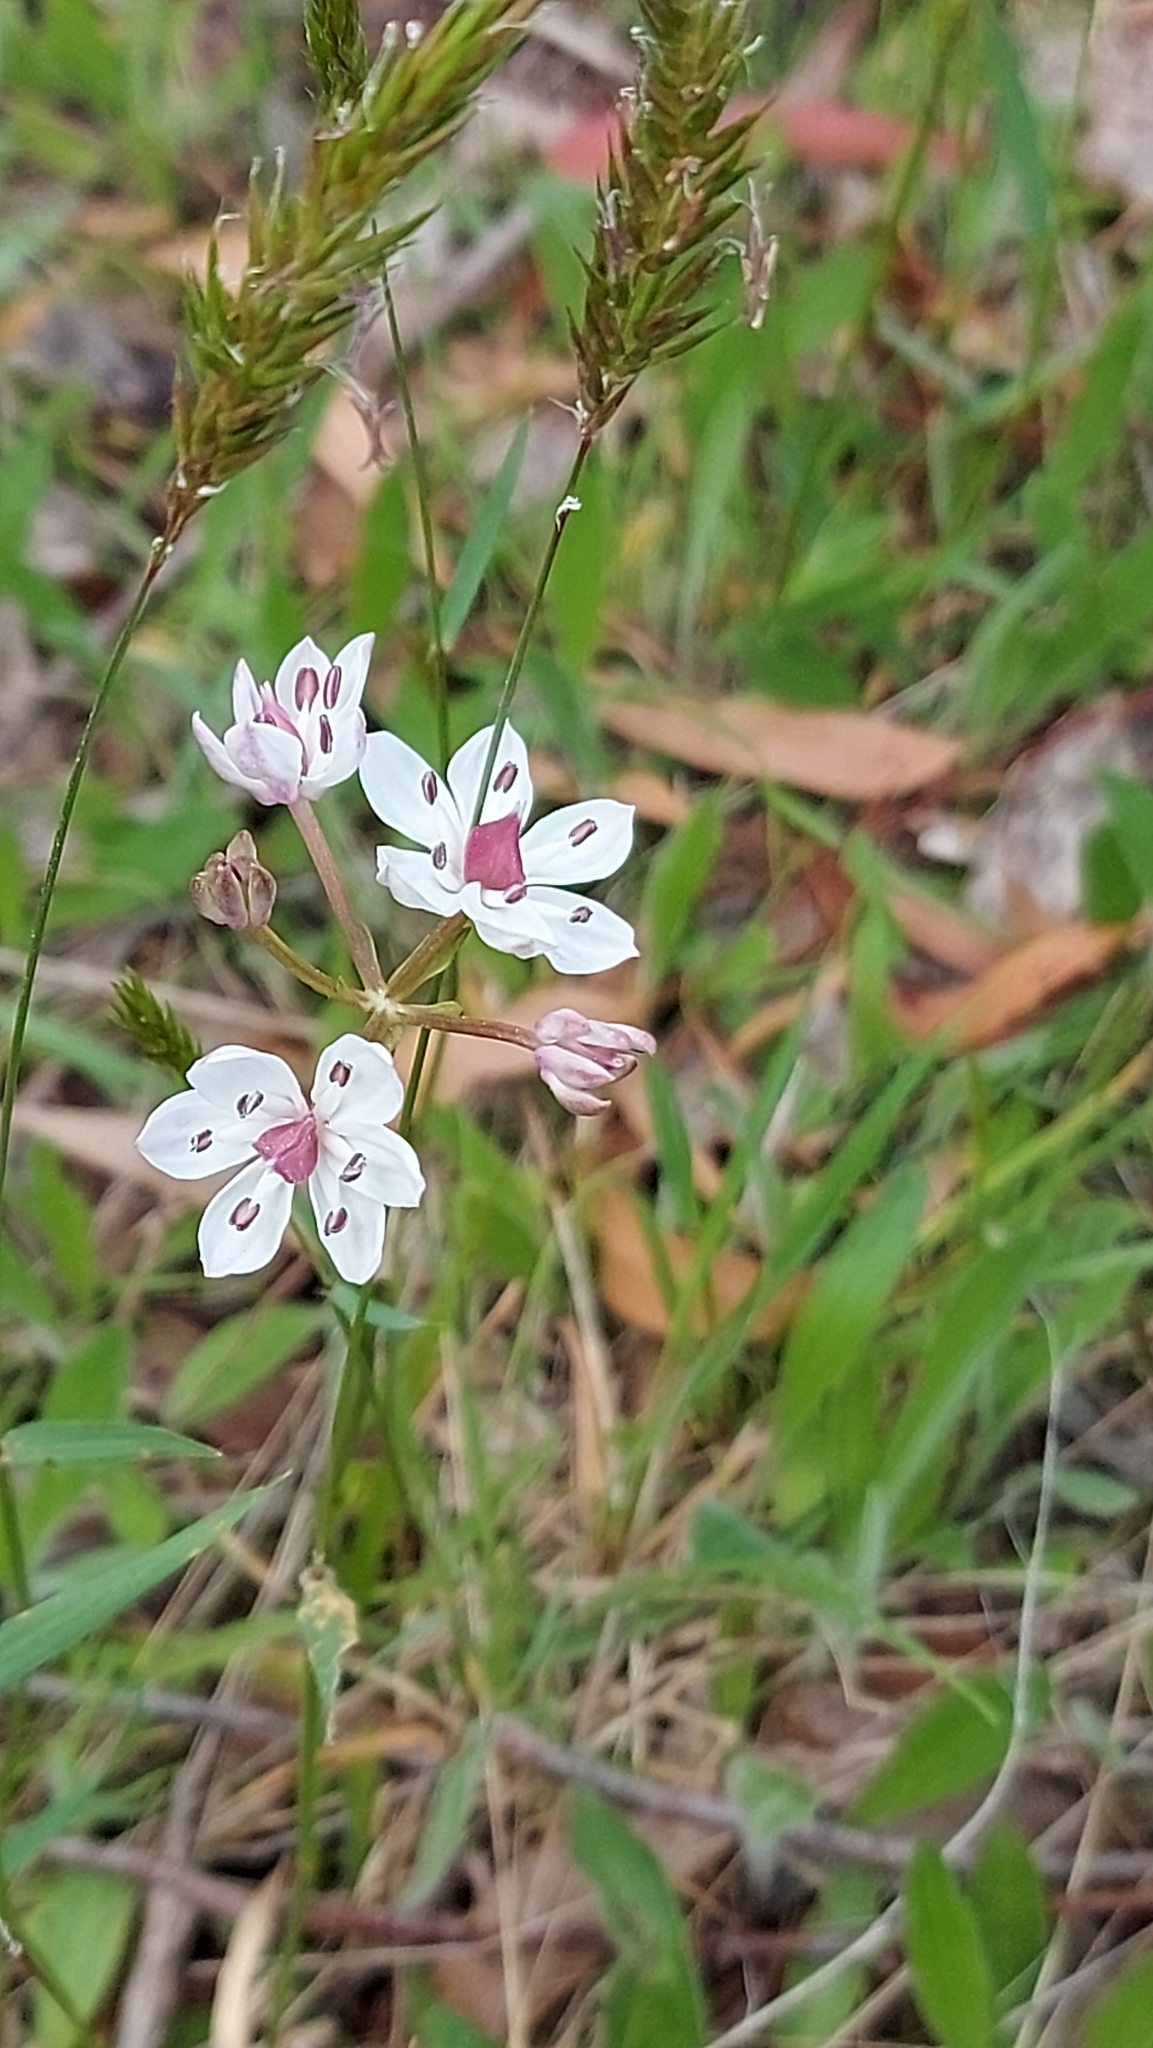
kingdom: Plantae
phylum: Tracheophyta
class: Liliopsida
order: Liliales
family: Colchicaceae
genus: Burchardia
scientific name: Burchardia umbellata
